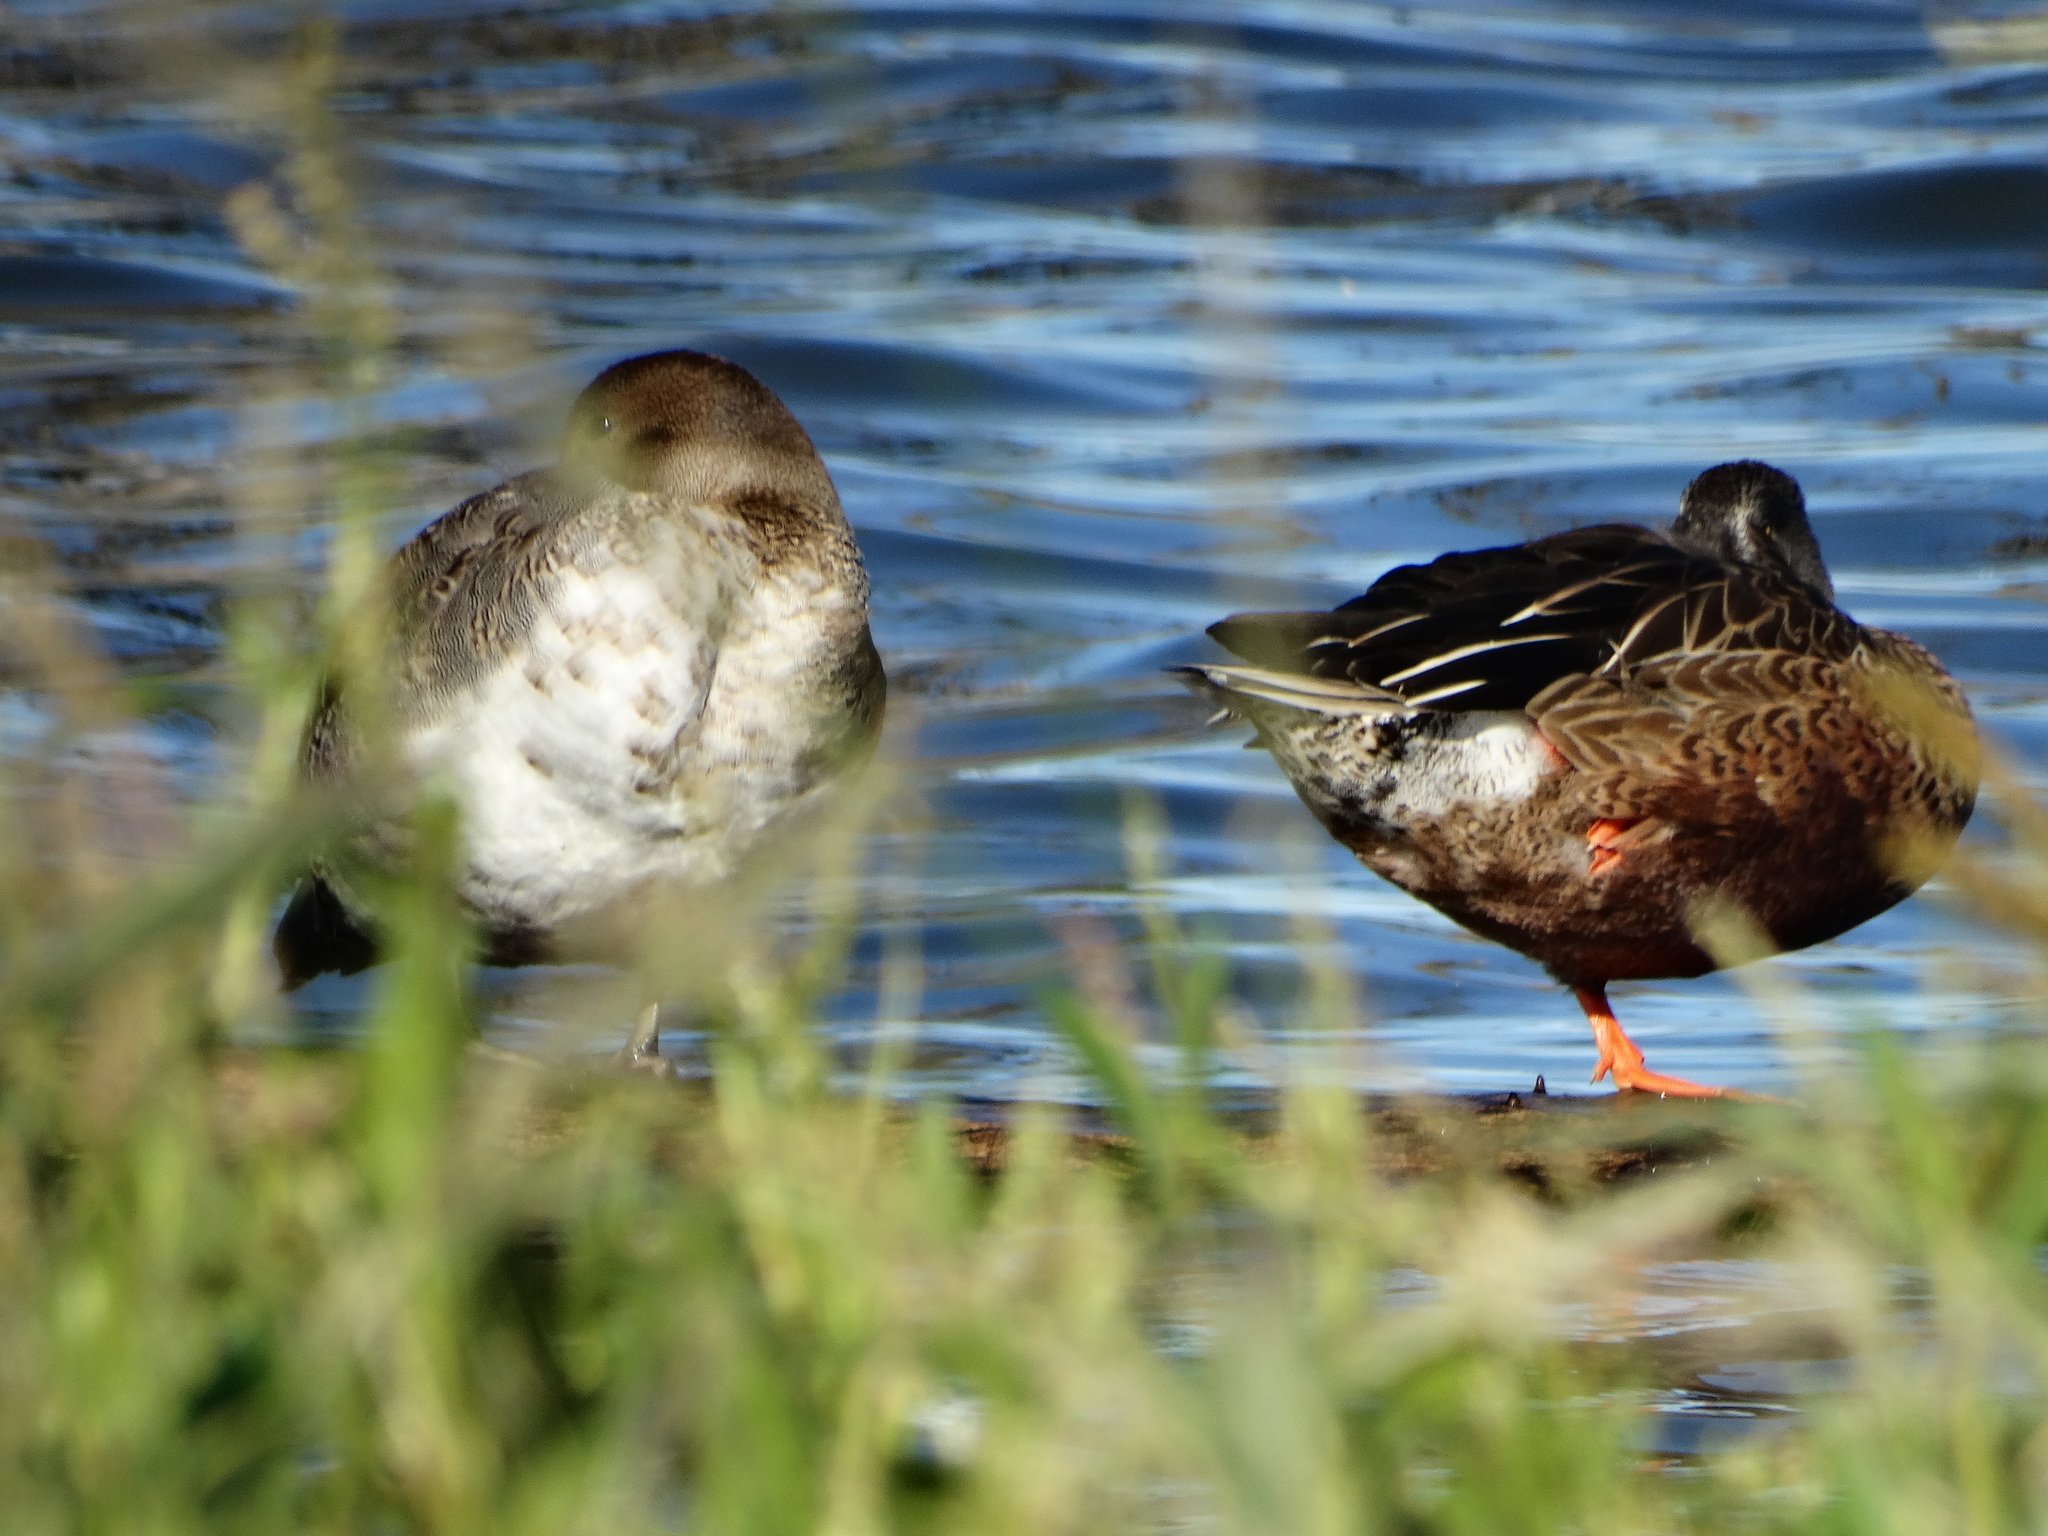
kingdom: Animalia
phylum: Chordata
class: Aves
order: Anseriformes
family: Anatidae
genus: Spatula
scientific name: Spatula clypeata
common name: Northern shoveler
